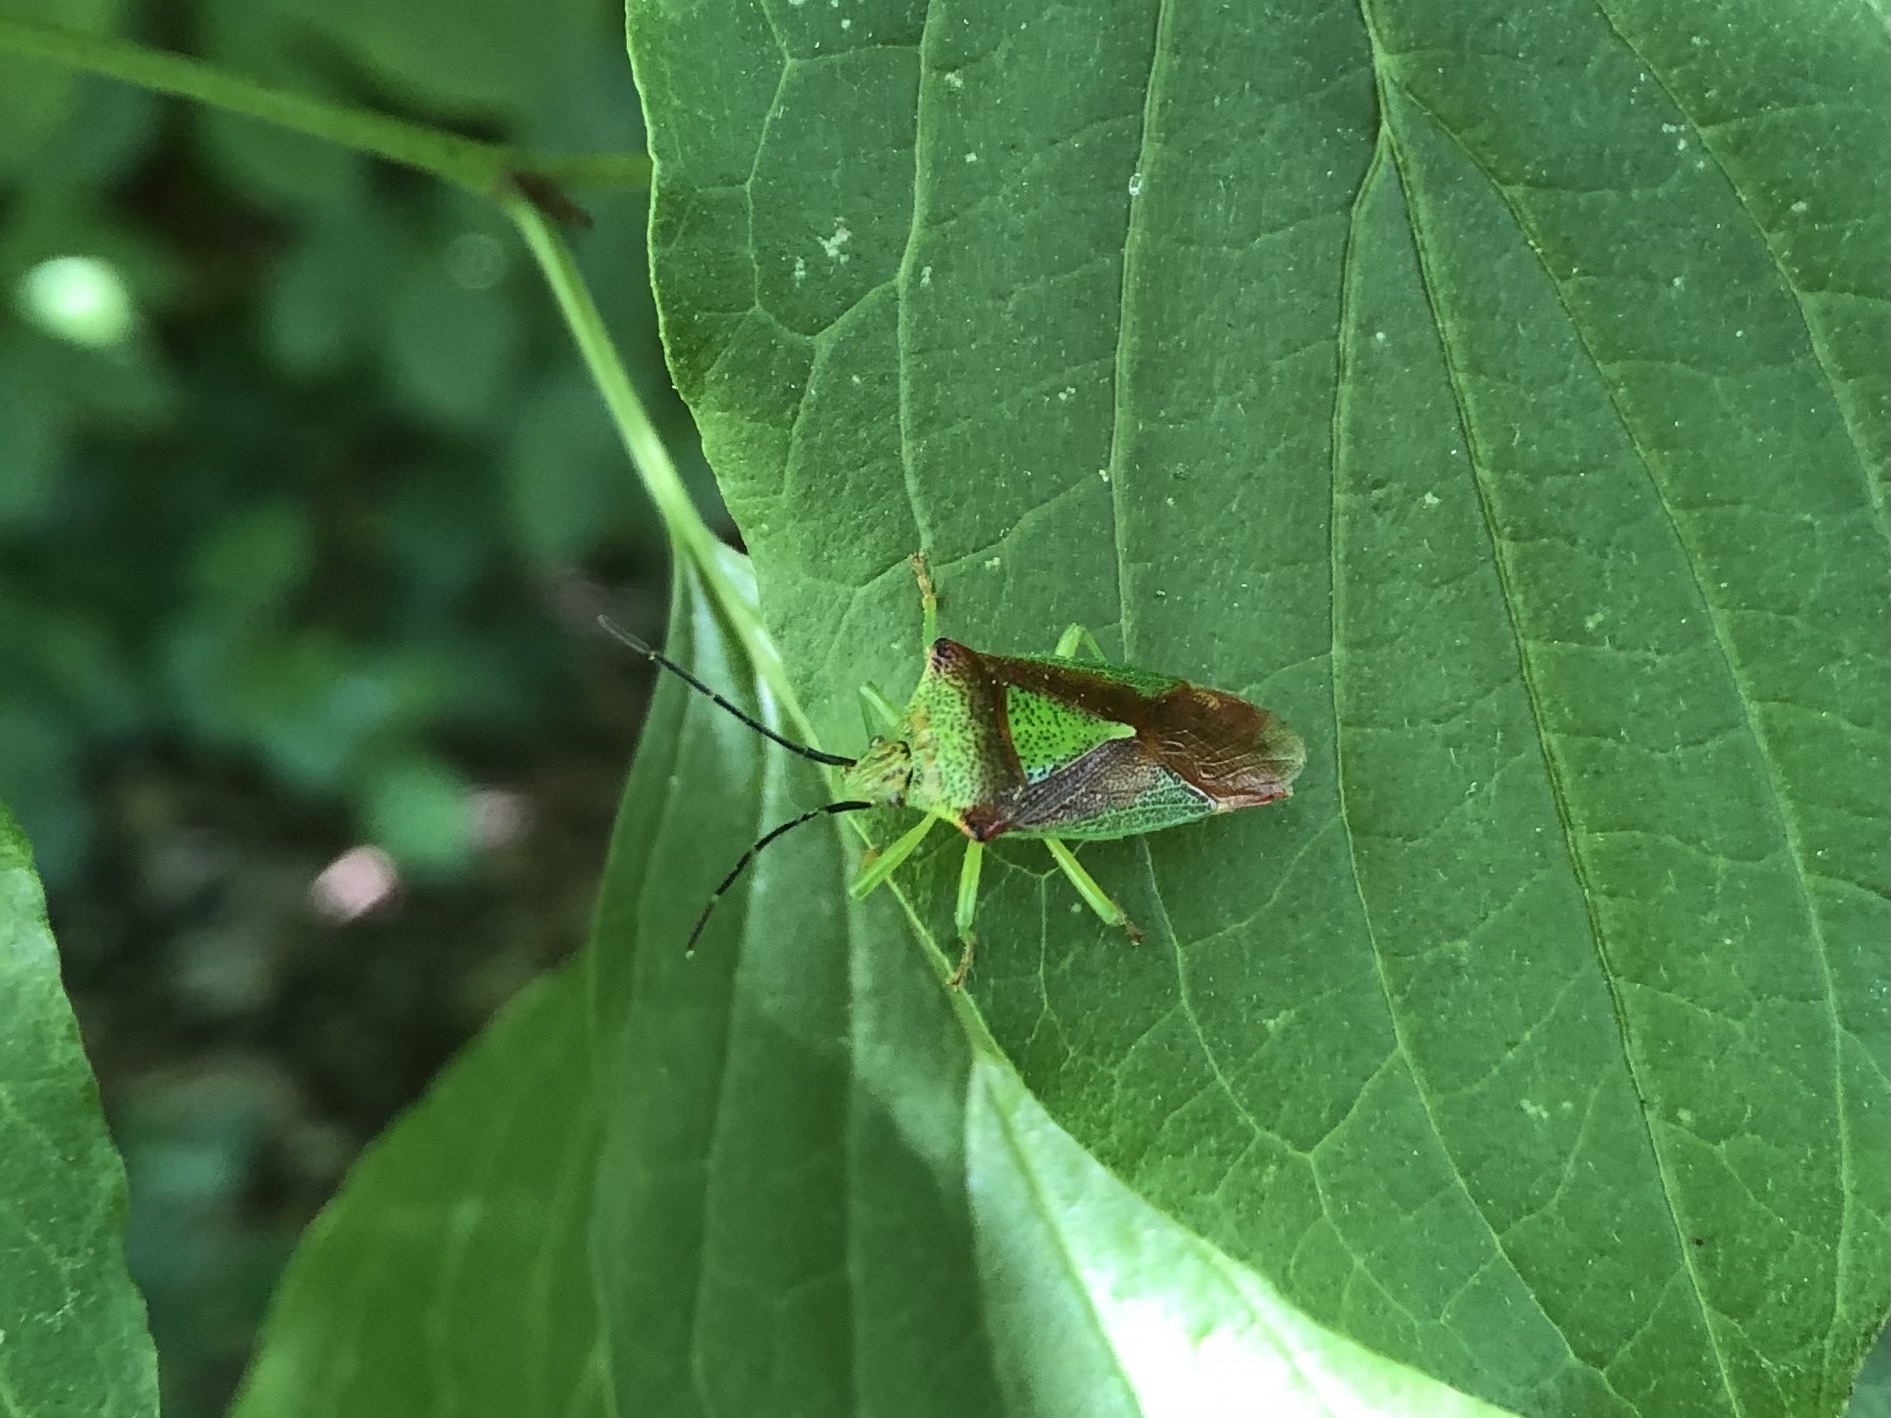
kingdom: Animalia
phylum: Arthropoda
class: Insecta
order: Hemiptera
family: Acanthosomatidae
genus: Acanthosoma
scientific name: Acanthosoma haemorrhoidale
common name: Hawthorn shieldbug
